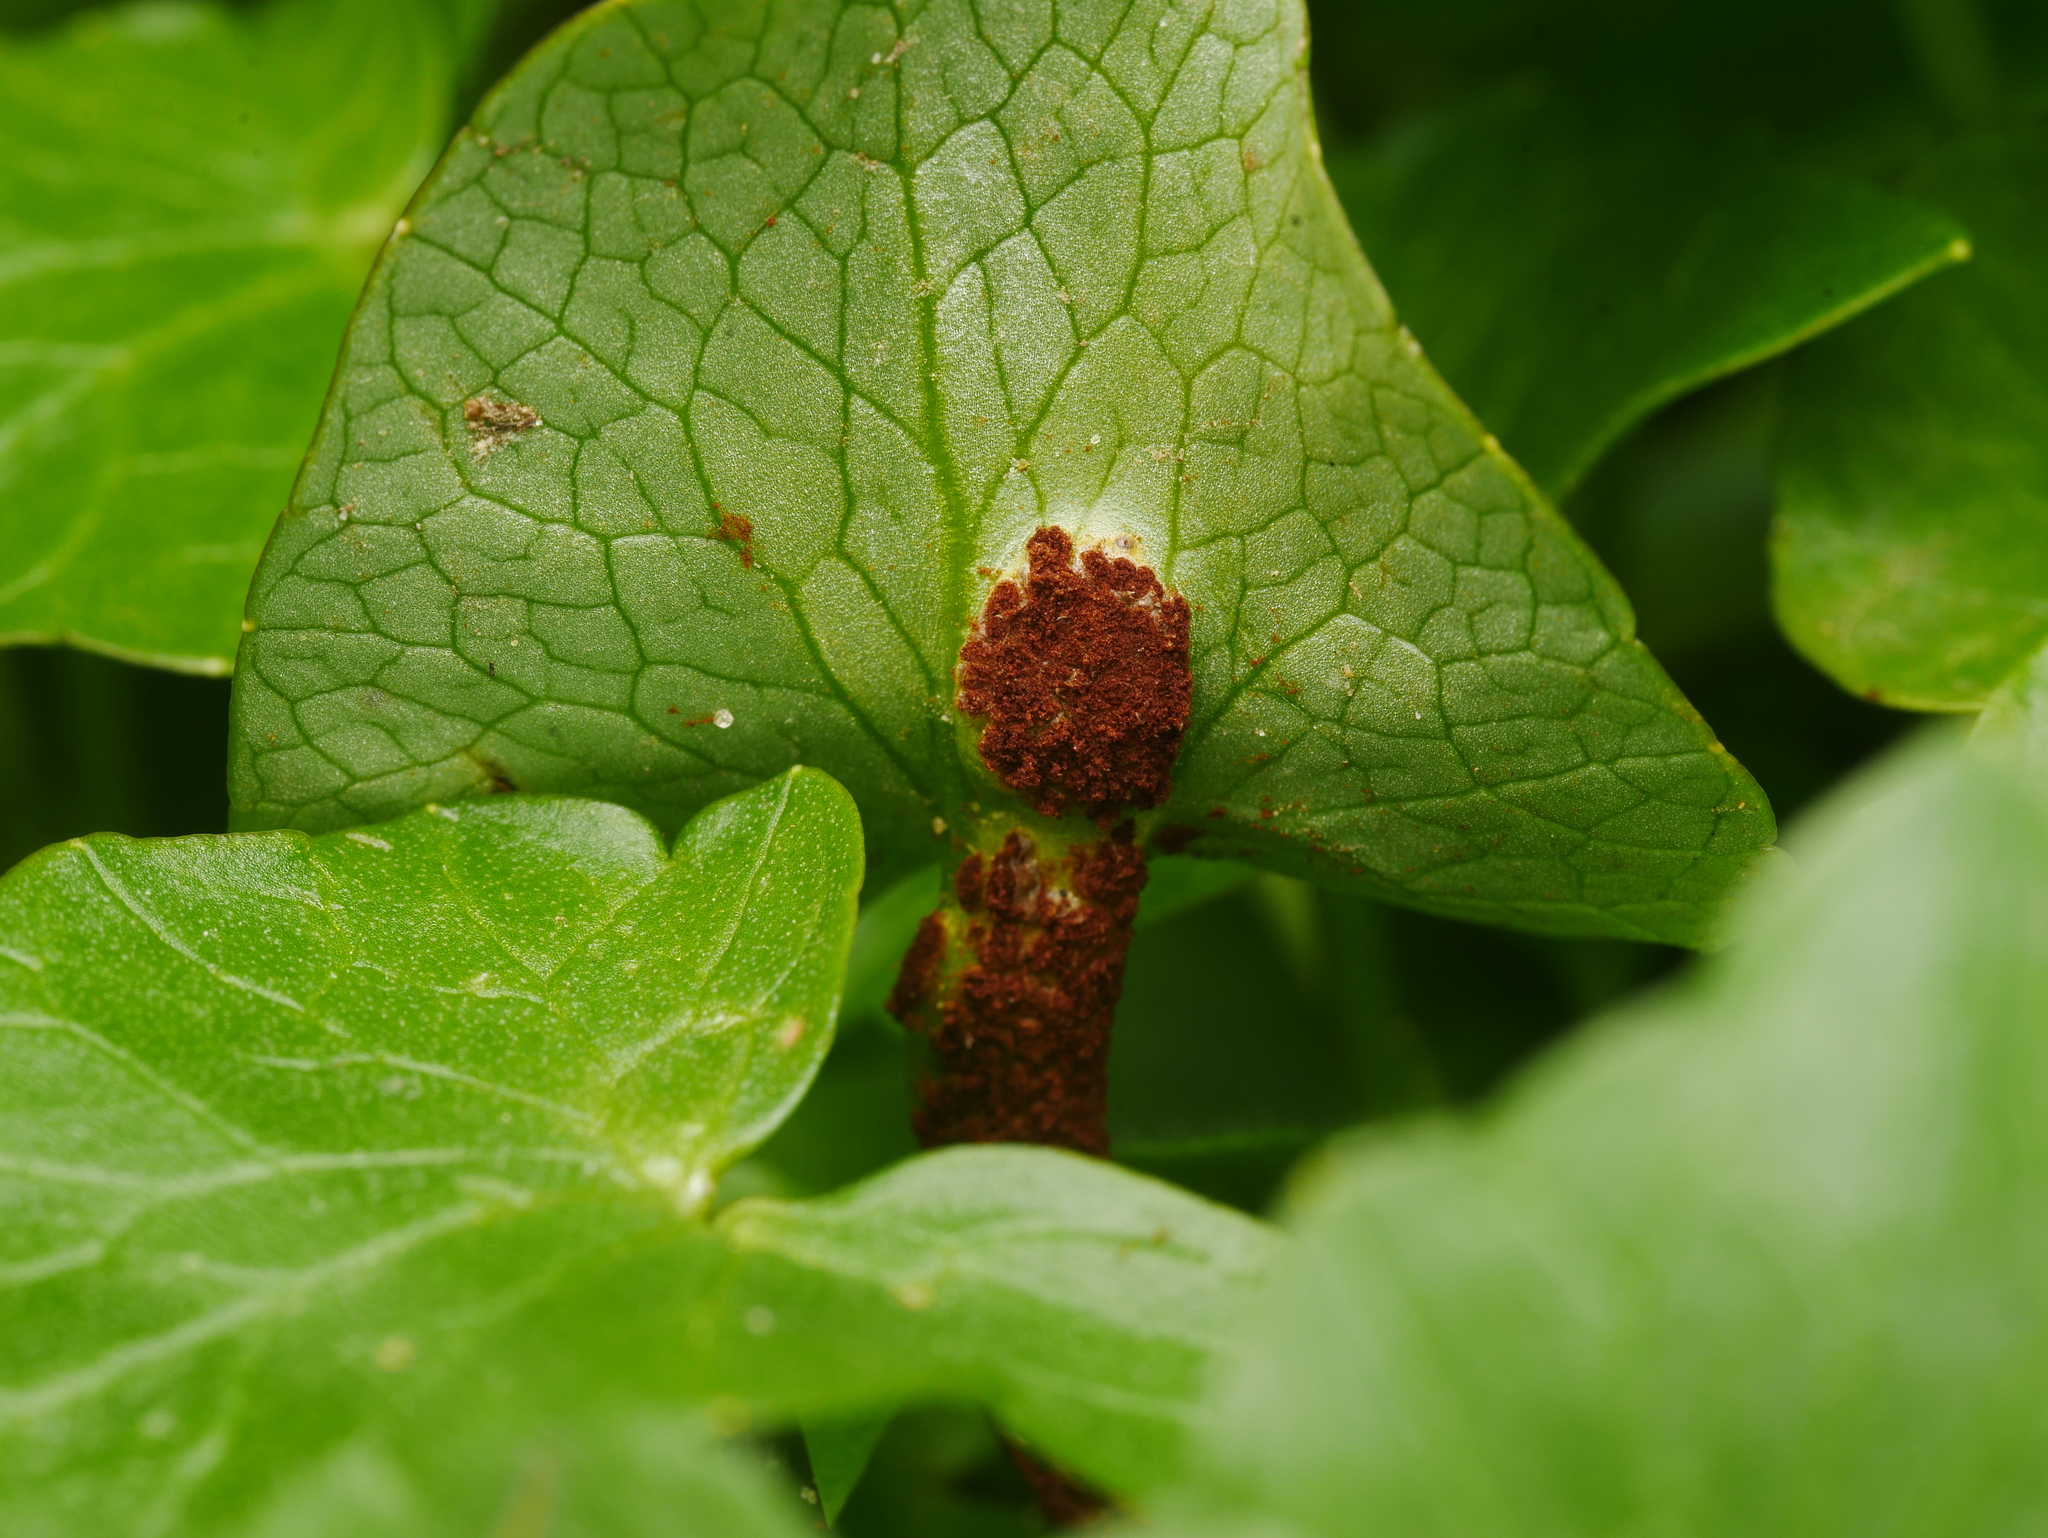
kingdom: Fungi
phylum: Basidiomycota
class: Pucciniomycetes
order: Pucciniales
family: Pucciniaceae
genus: Uromyces
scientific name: Uromyces ficariae
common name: Bitter chocolate rust
